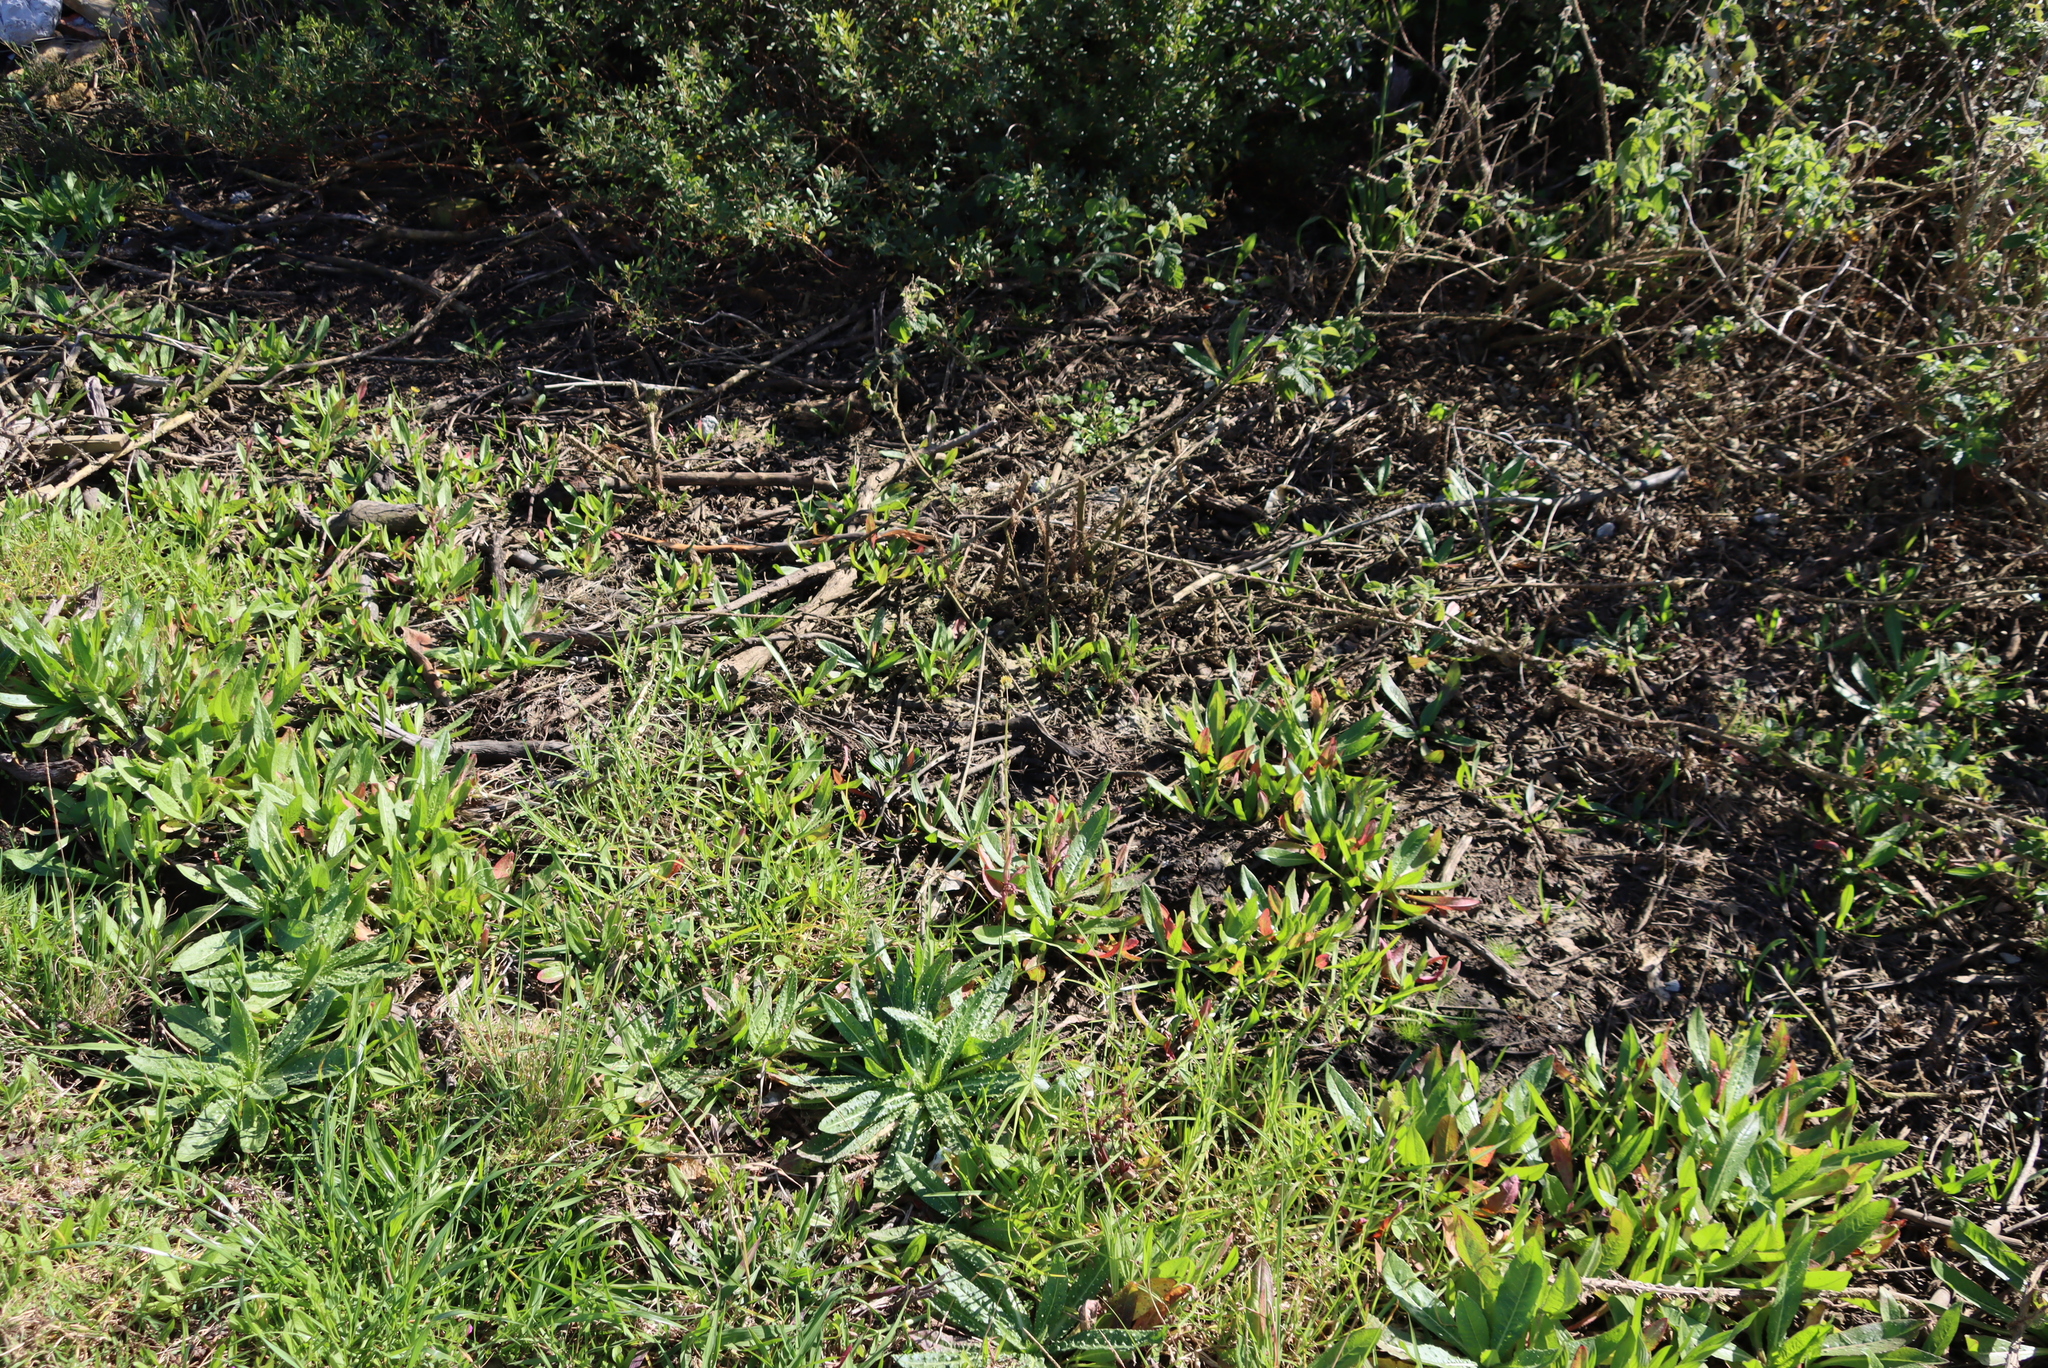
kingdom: Plantae
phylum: Tracheophyta
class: Magnoliopsida
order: Asterales
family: Asteraceae
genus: Helminthotheca
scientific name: Helminthotheca echioides
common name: Ox-tongue
